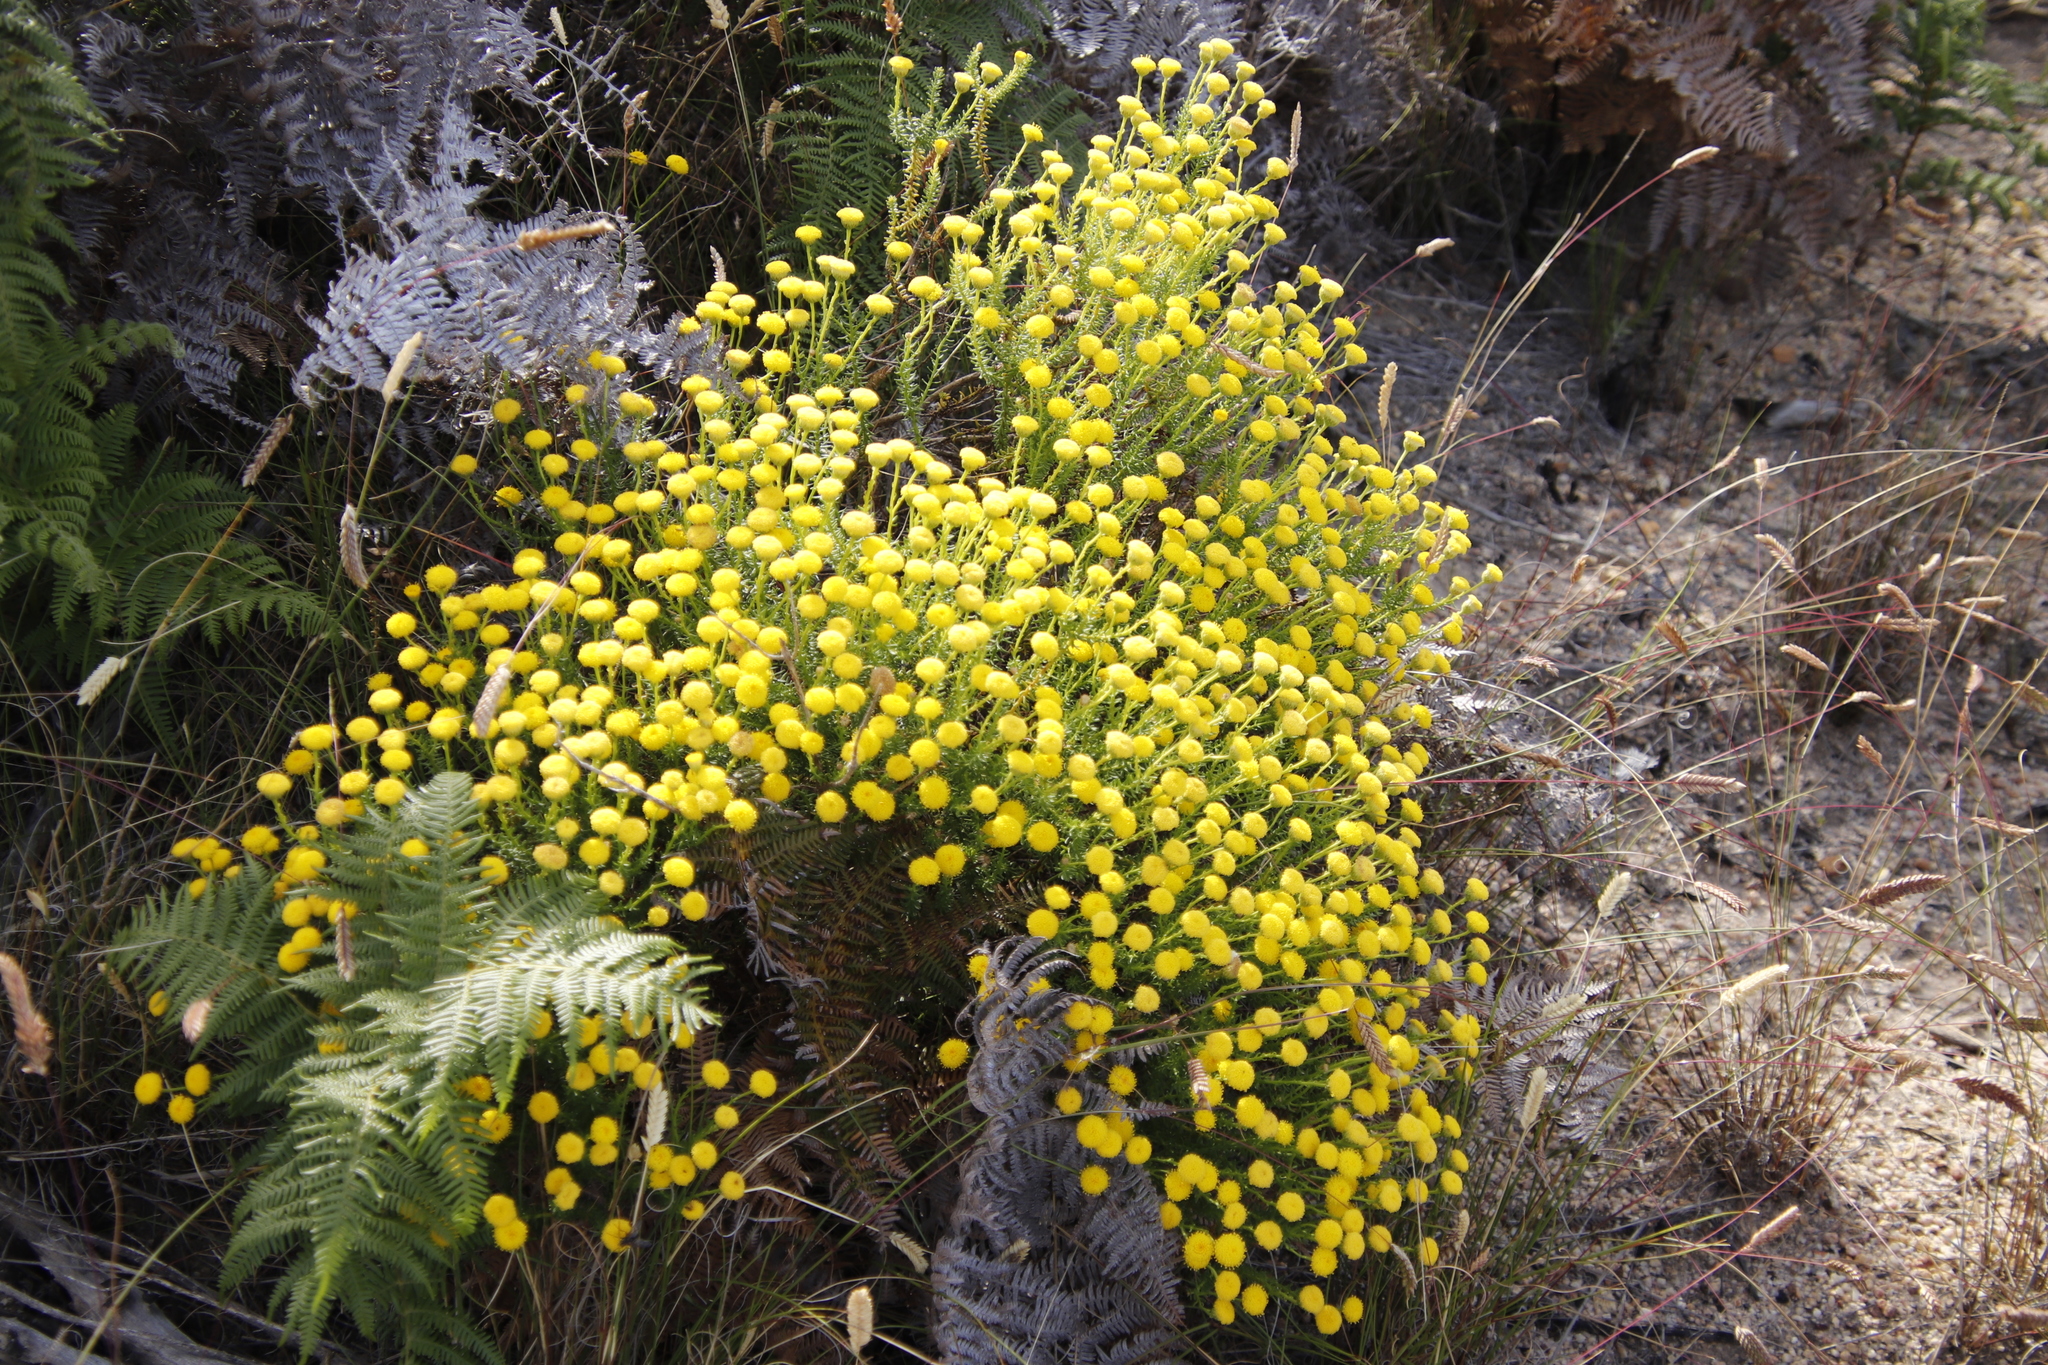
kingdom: Plantae
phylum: Tracheophyta
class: Magnoliopsida
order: Asterales
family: Asteraceae
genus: Chrysocoma
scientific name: Chrysocoma cernua
